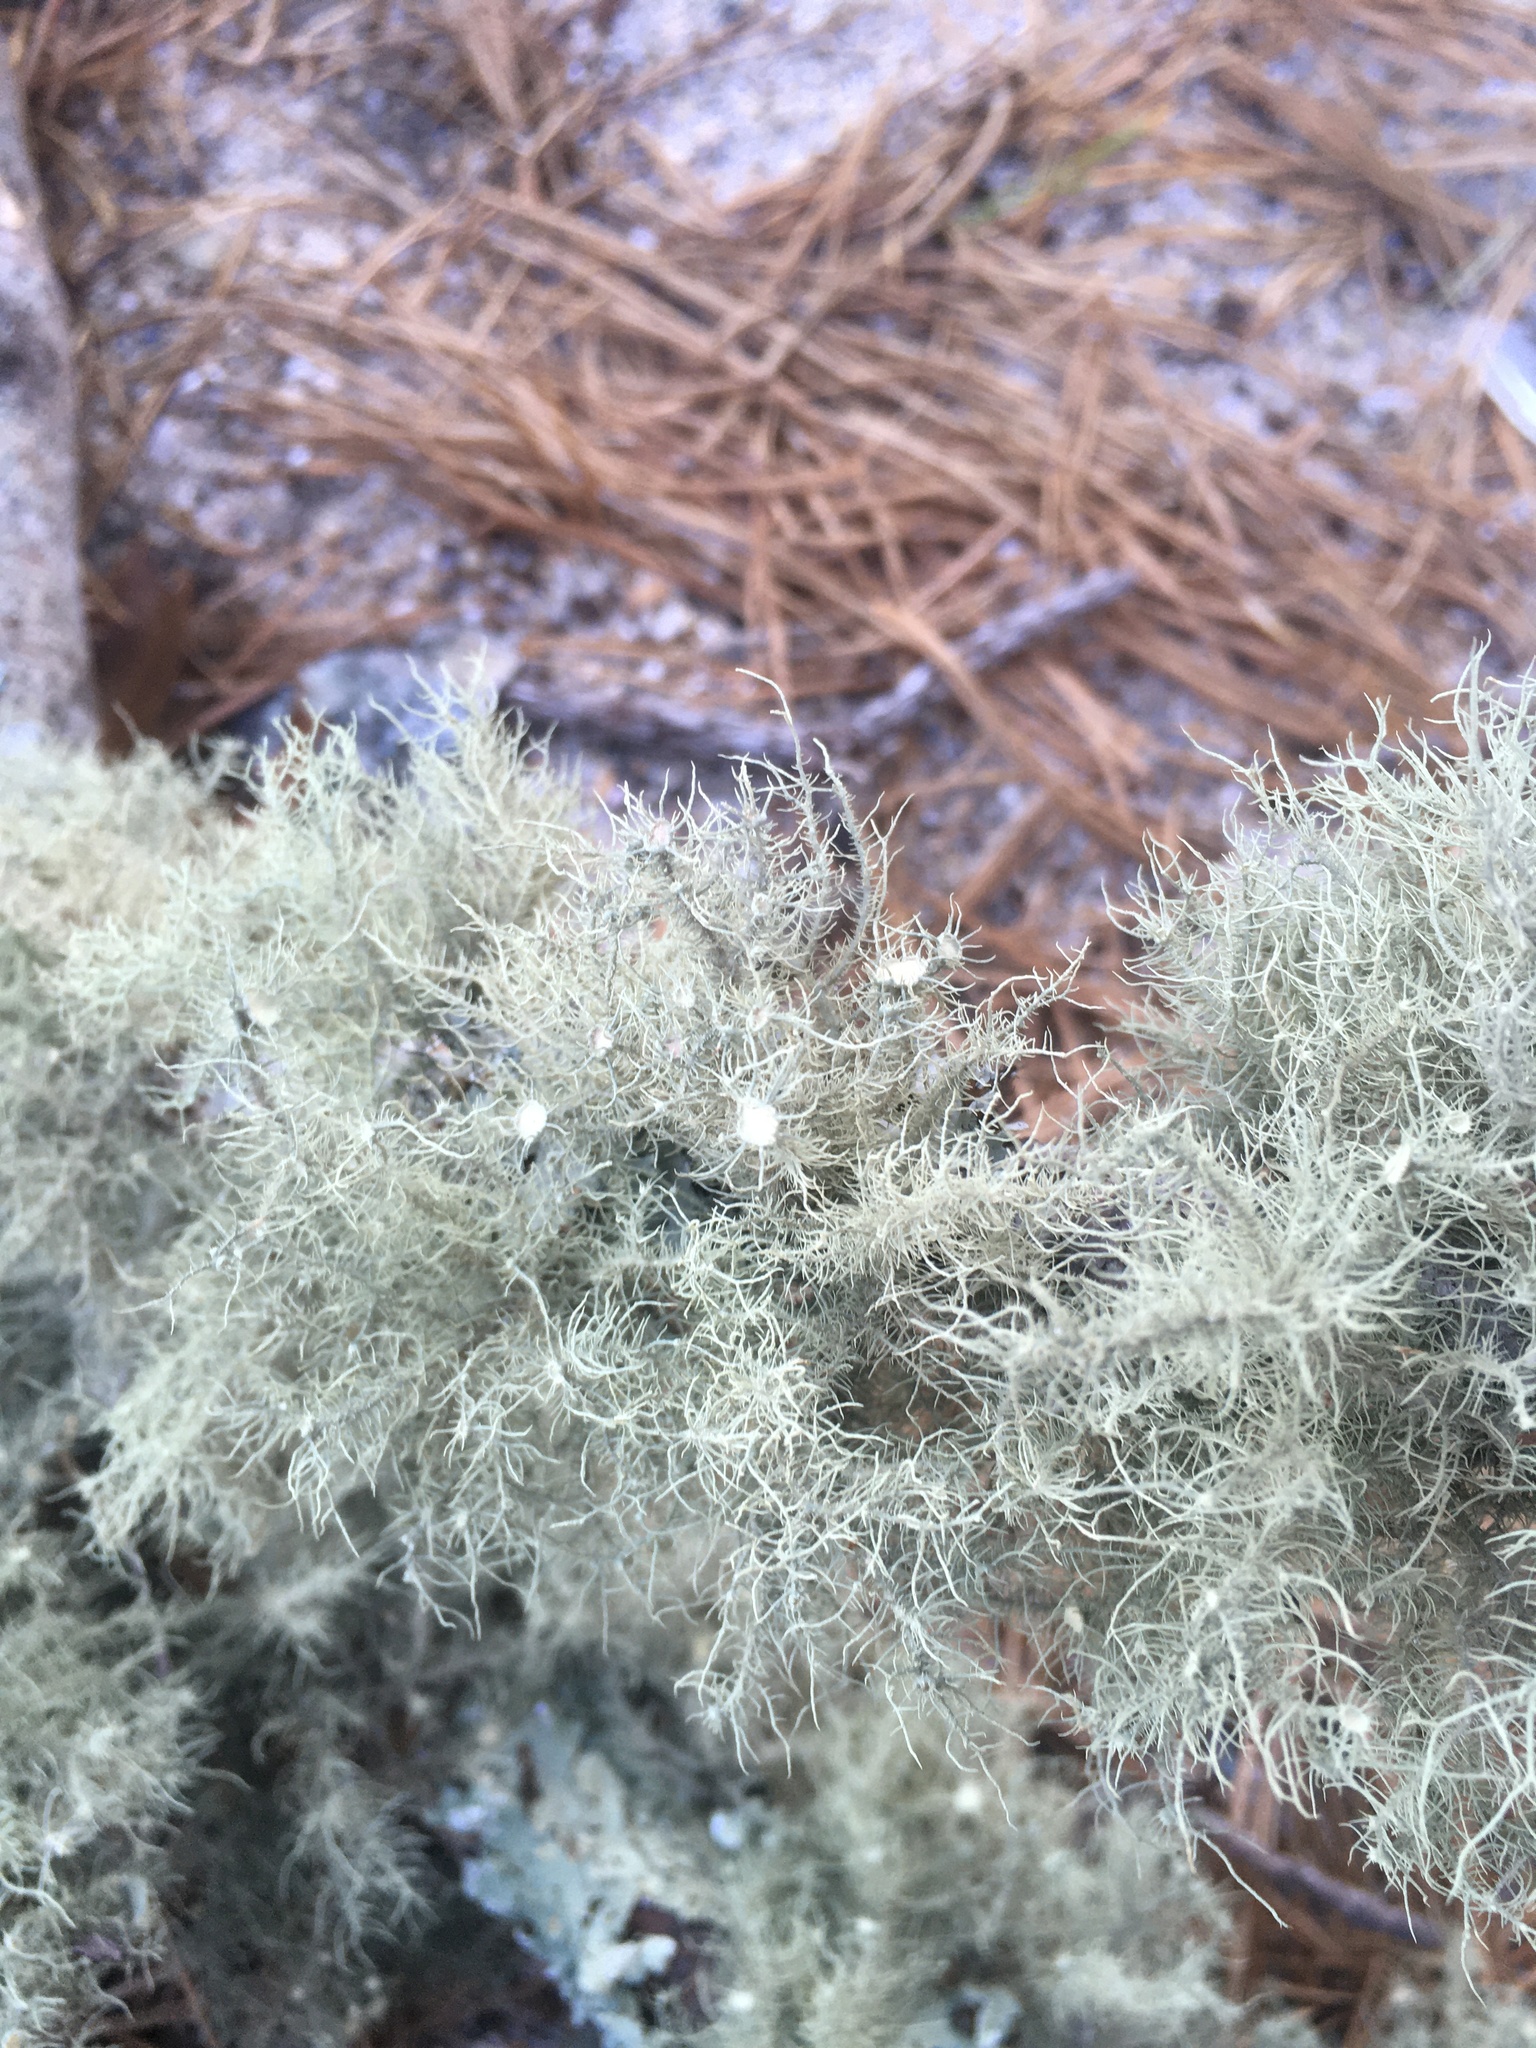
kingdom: Fungi
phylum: Ascomycota
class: Lecanoromycetes
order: Lecanorales
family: Parmeliaceae
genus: Usnea
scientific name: Usnea strigosa
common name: Bushy beard lichen
